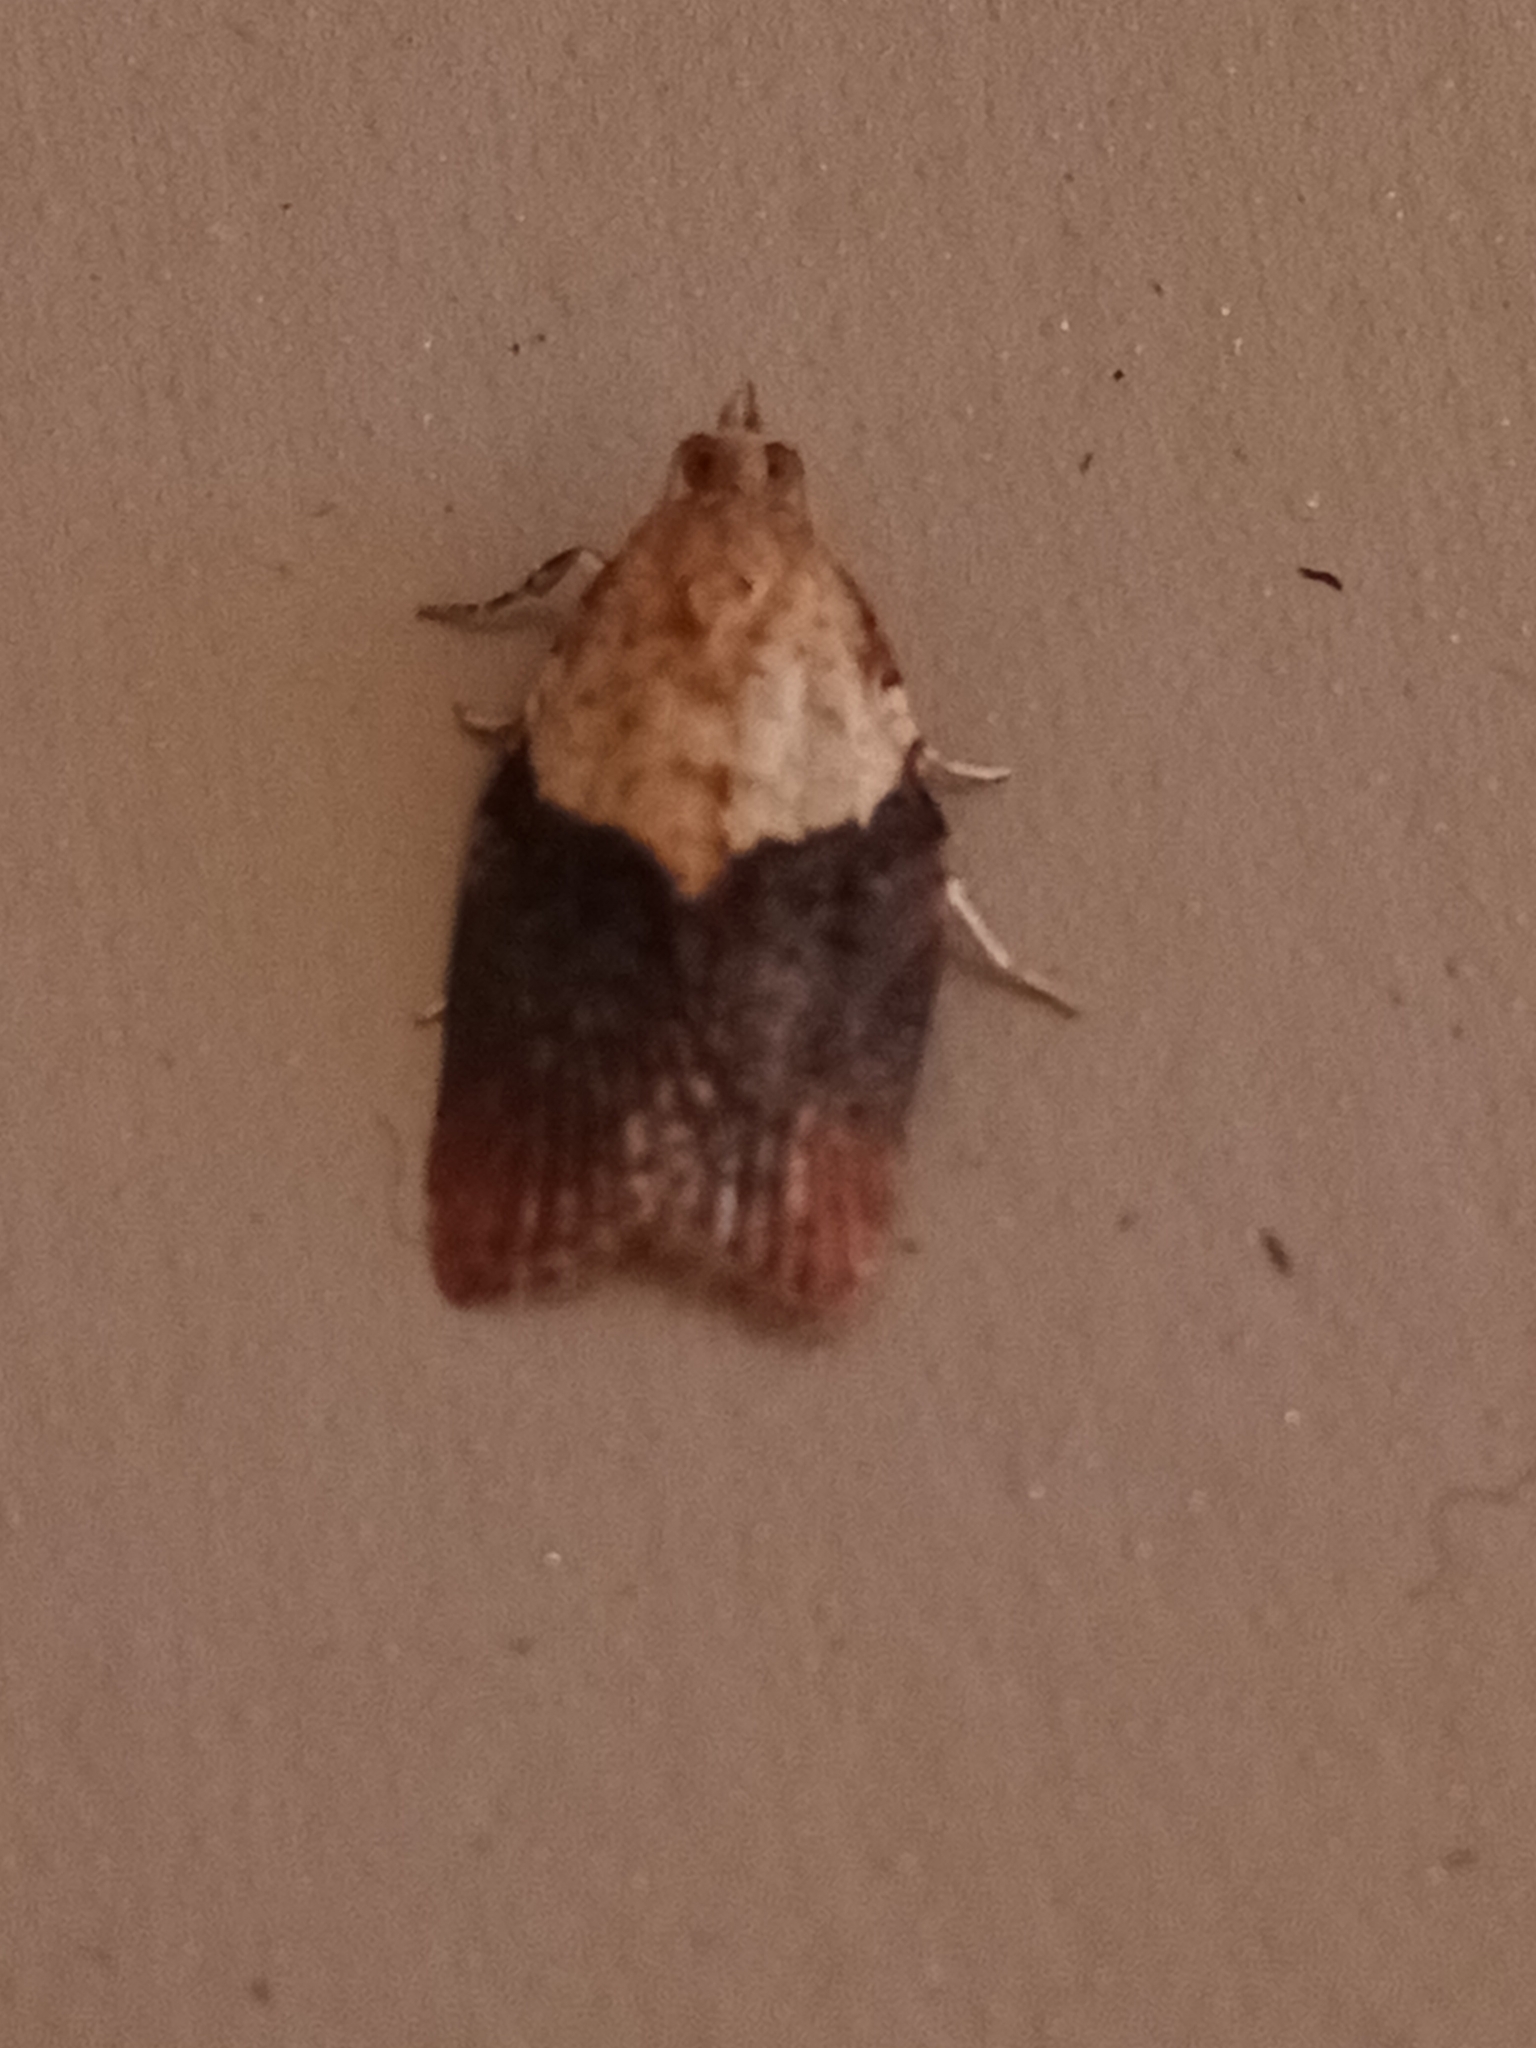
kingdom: Animalia
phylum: Arthropoda
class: Insecta
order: Lepidoptera
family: Tortricidae
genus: Epiphyas
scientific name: Epiphyas postvittana
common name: Light brown apple moth
